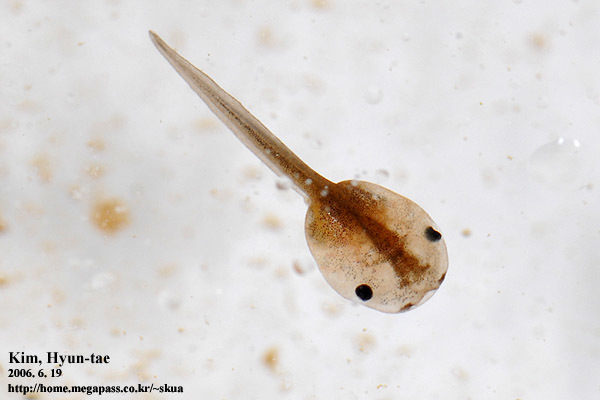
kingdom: Animalia
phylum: Chordata
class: Amphibia
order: Anura
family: Microhylidae
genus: Kaloula
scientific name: Kaloula borealis
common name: Boreal digging frog
